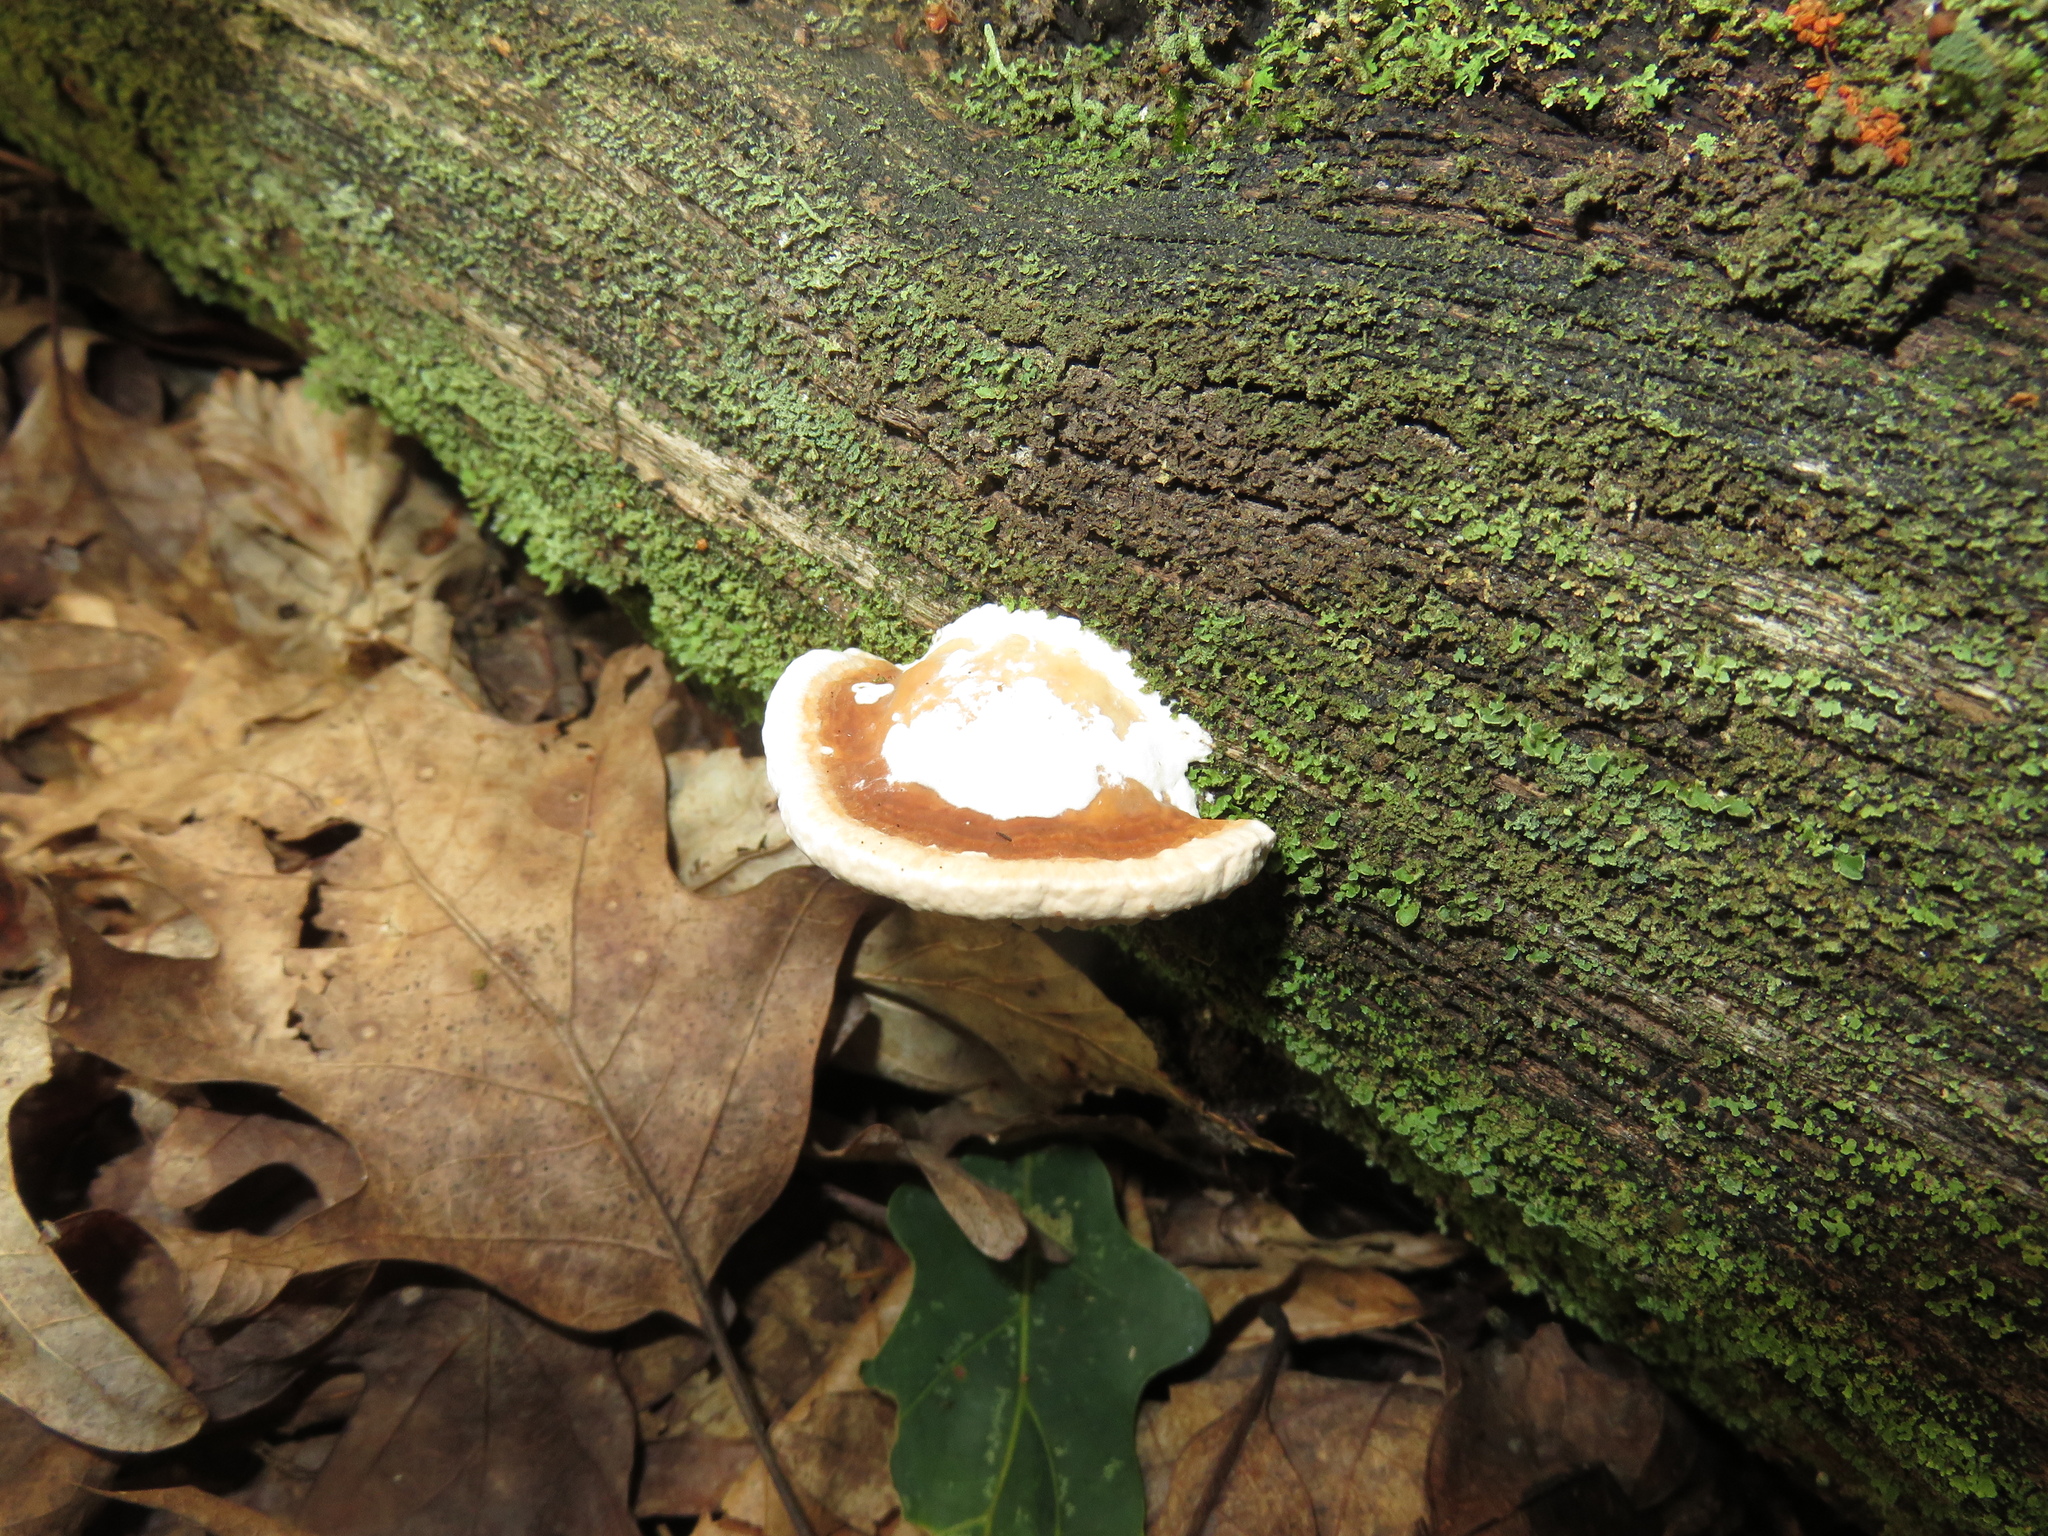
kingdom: Fungi
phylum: Basidiomycota
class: Agaricomycetes
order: Polyporales
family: Fomitopsidaceae
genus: Fomitopsis
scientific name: Fomitopsis
